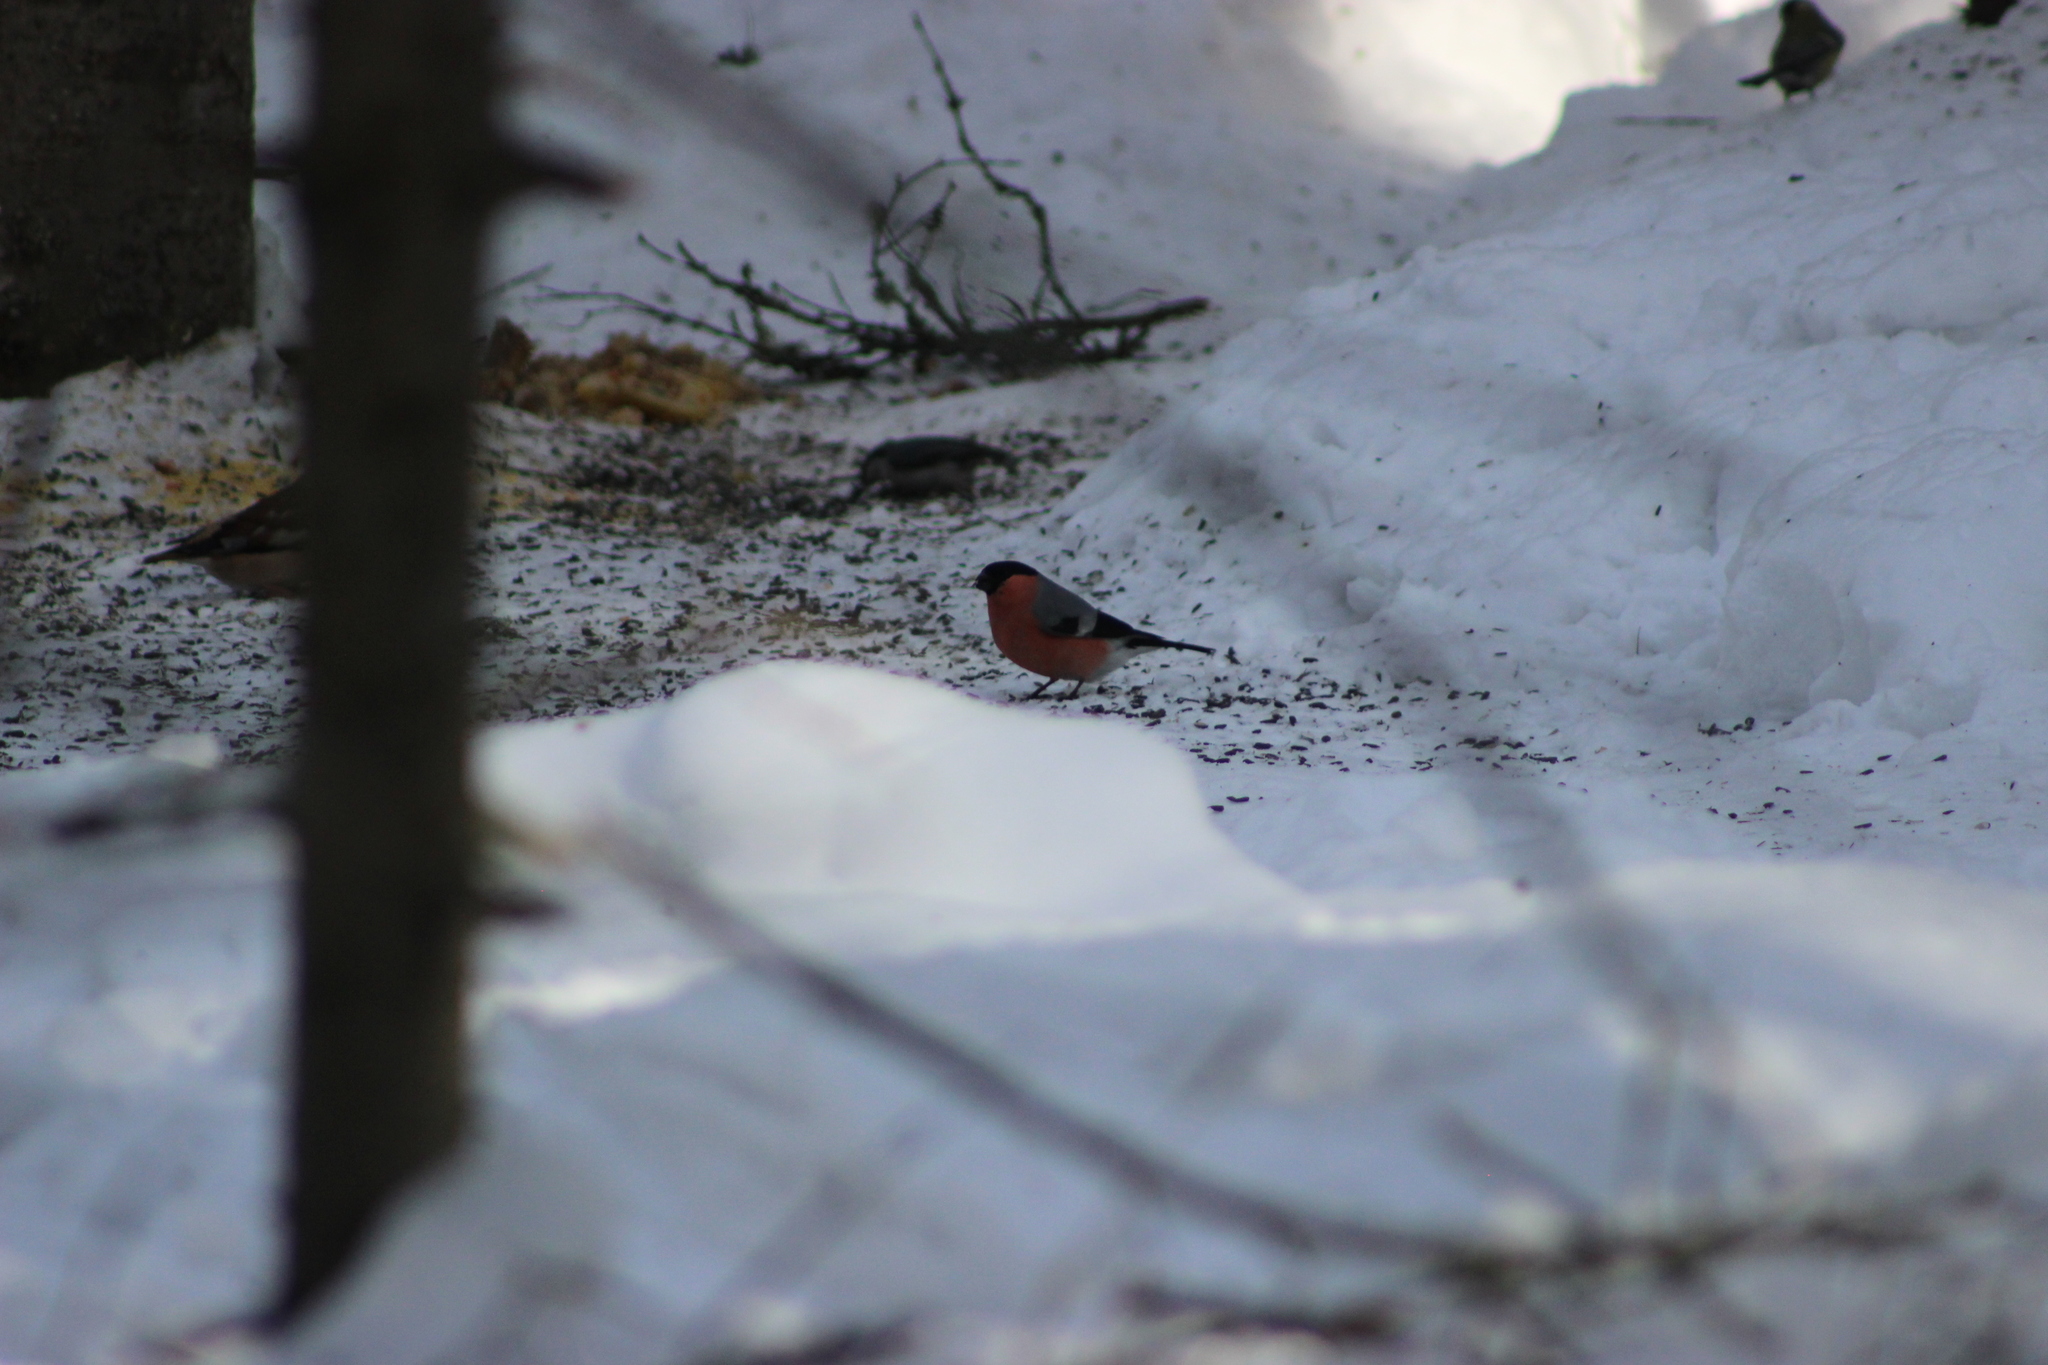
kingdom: Animalia
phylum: Chordata
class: Aves
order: Passeriformes
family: Fringillidae
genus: Pyrrhula
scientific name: Pyrrhula pyrrhula
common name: Eurasian bullfinch
